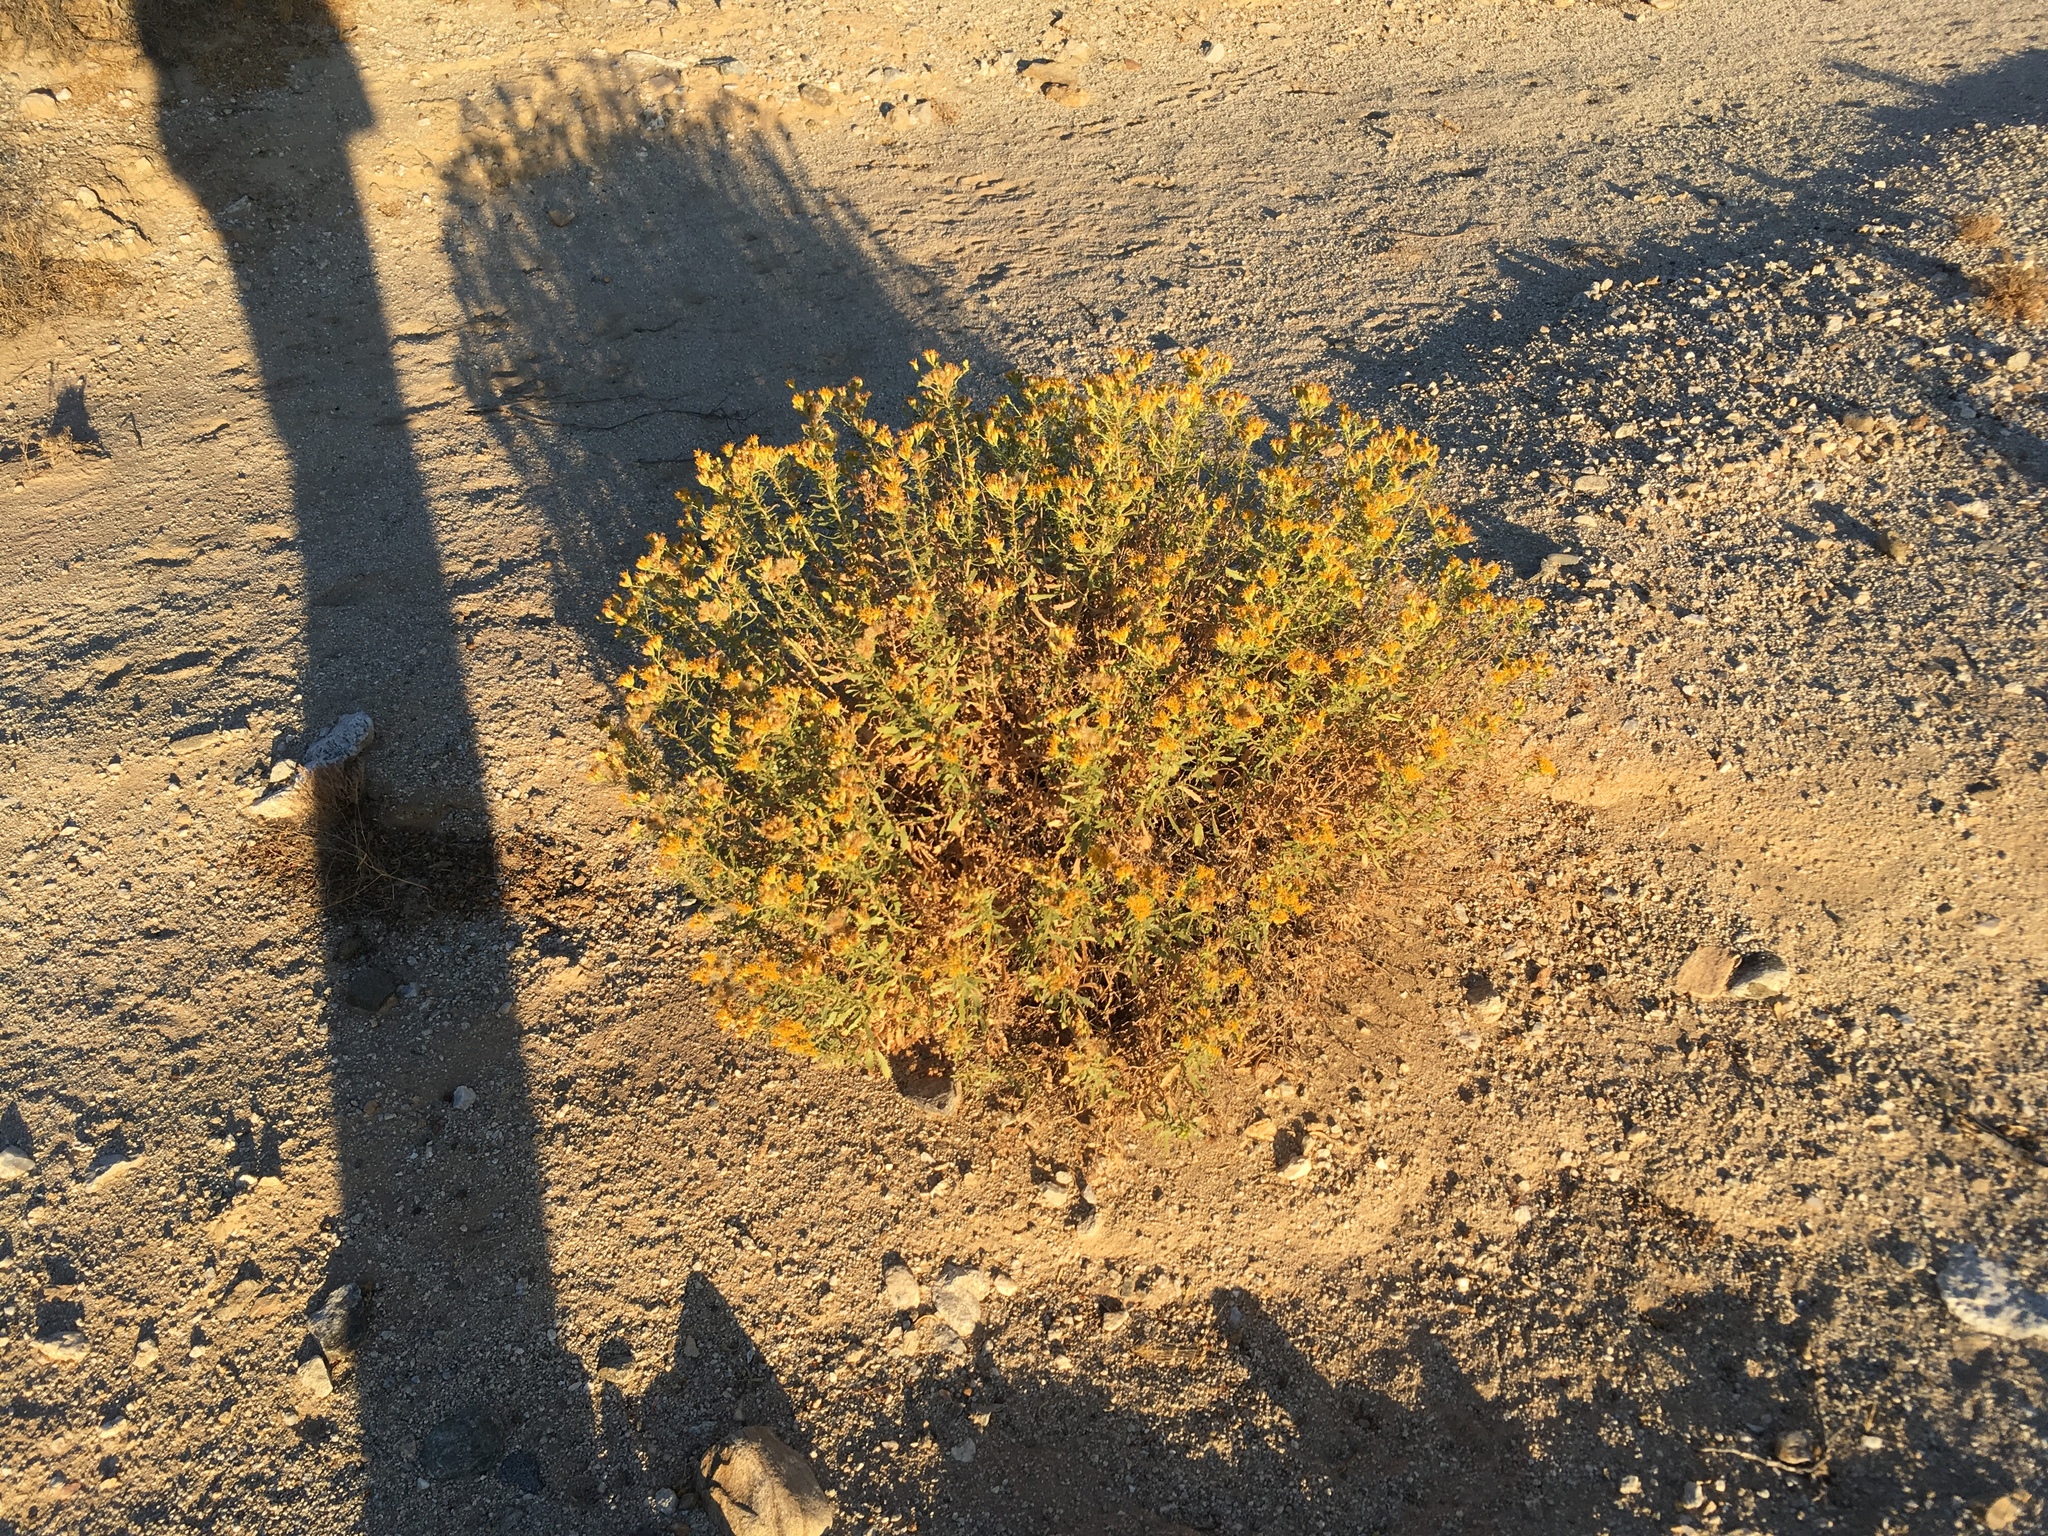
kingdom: Plantae
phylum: Tracheophyta
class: Magnoliopsida
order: Asterales
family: Asteraceae
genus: Isocoma
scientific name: Isocoma acradenia
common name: Alkali jimmyweed
